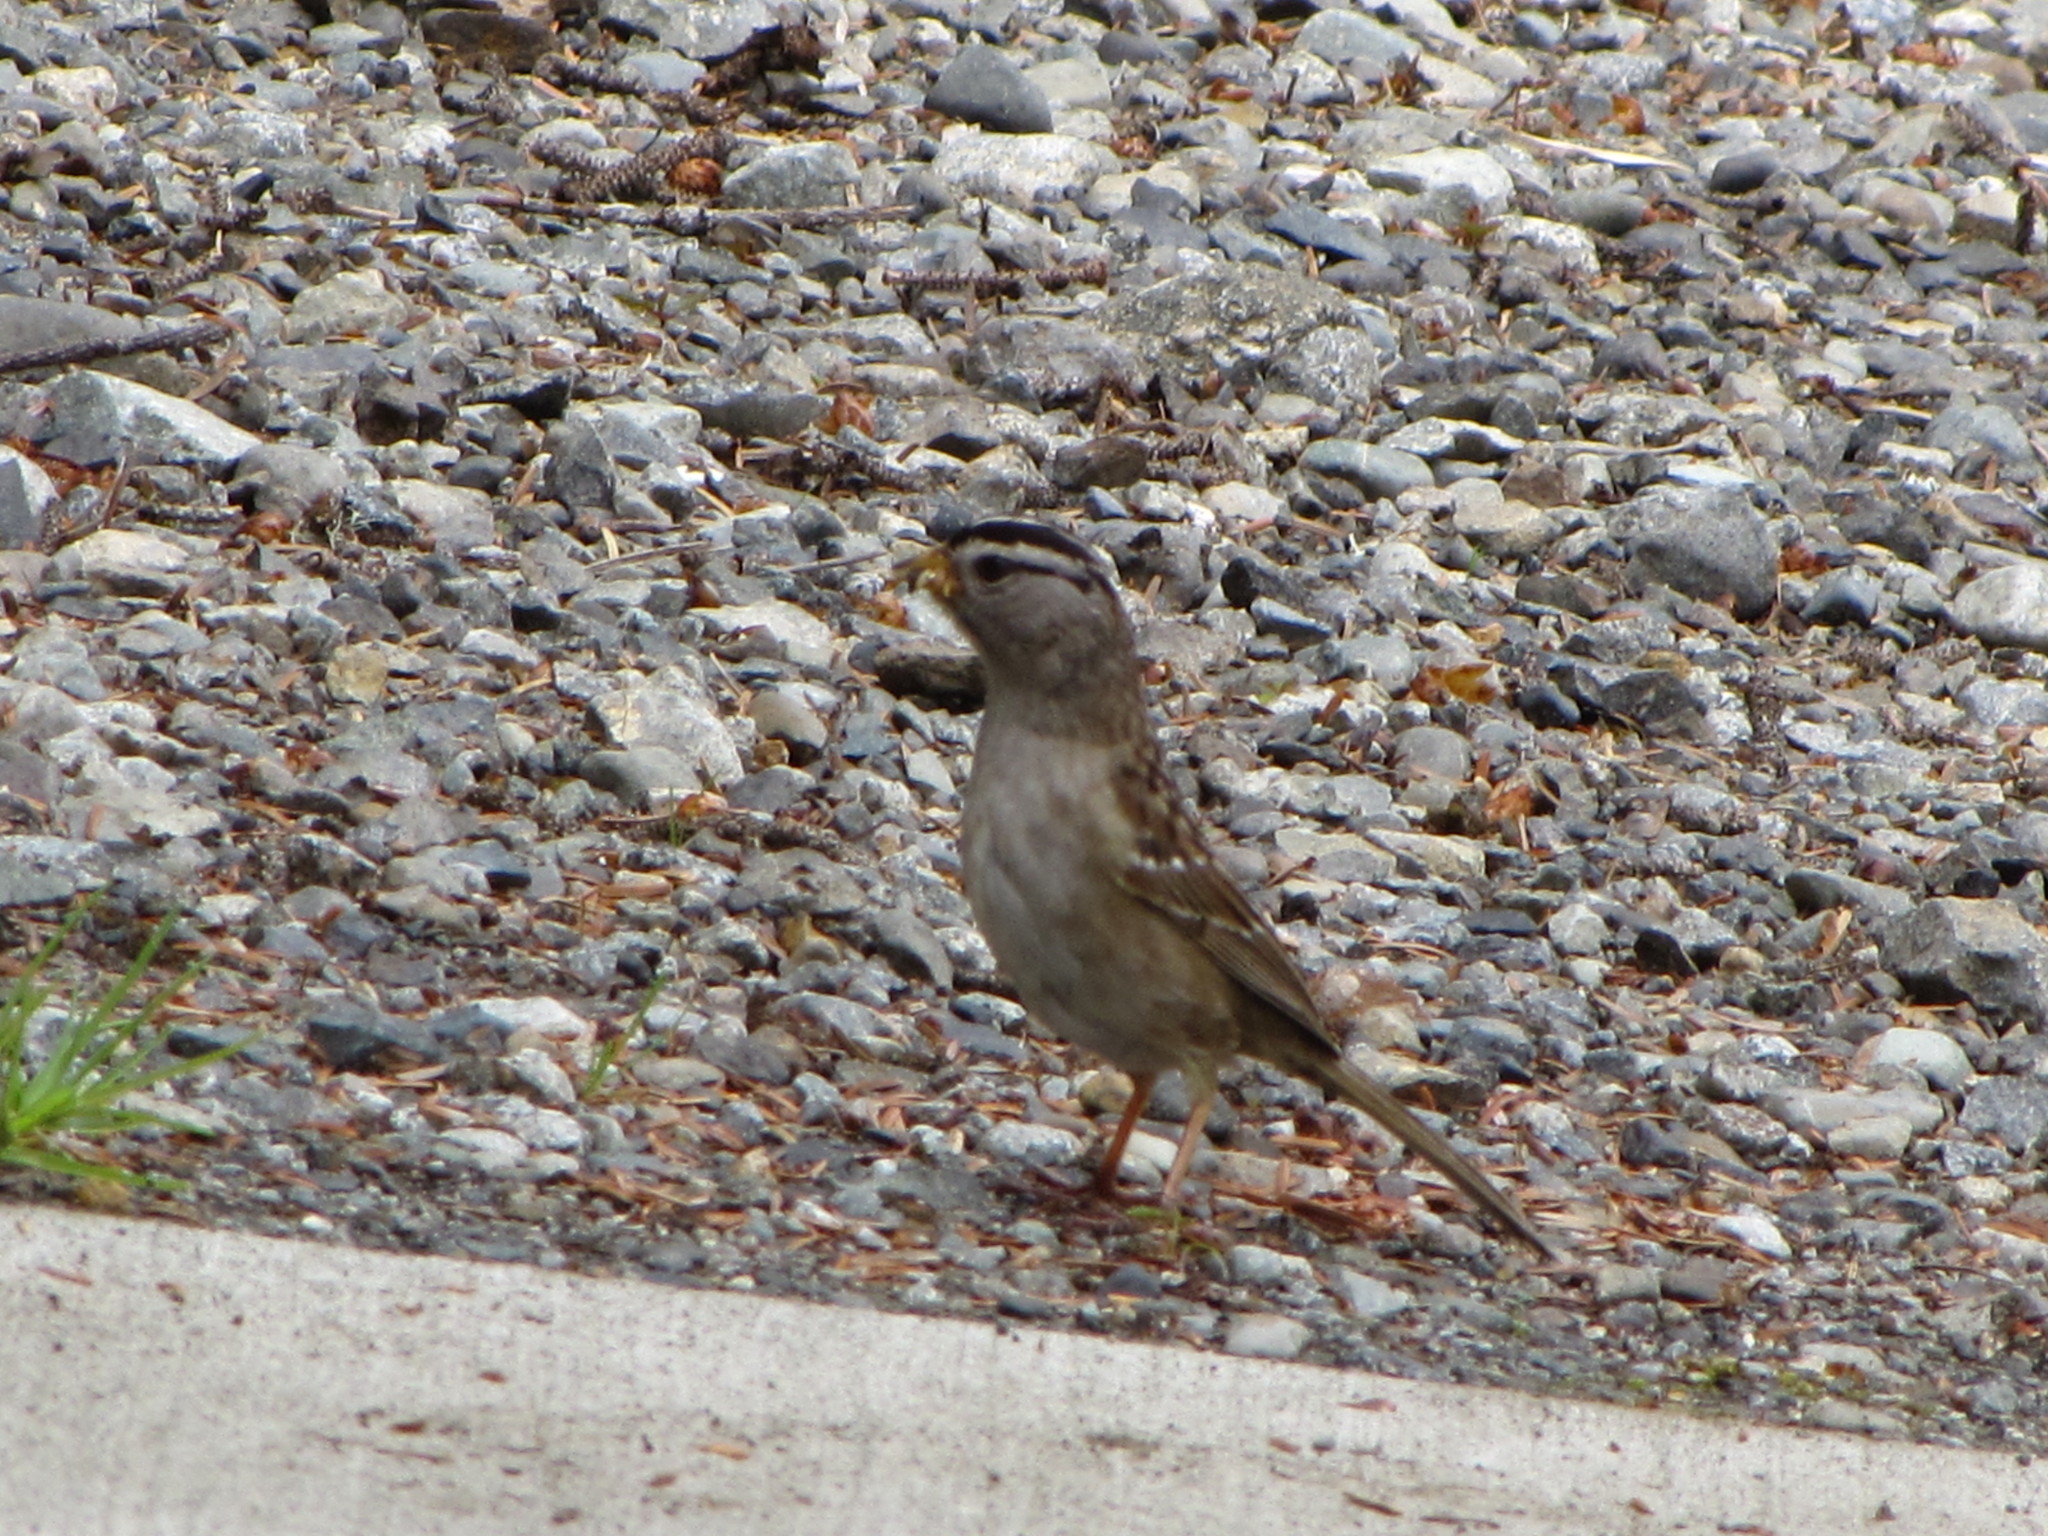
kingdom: Animalia
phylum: Chordata
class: Aves
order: Passeriformes
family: Passerellidae
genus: Zonotrichia
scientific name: Zonotrichia leucophrys
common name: White-crowned sparrow
